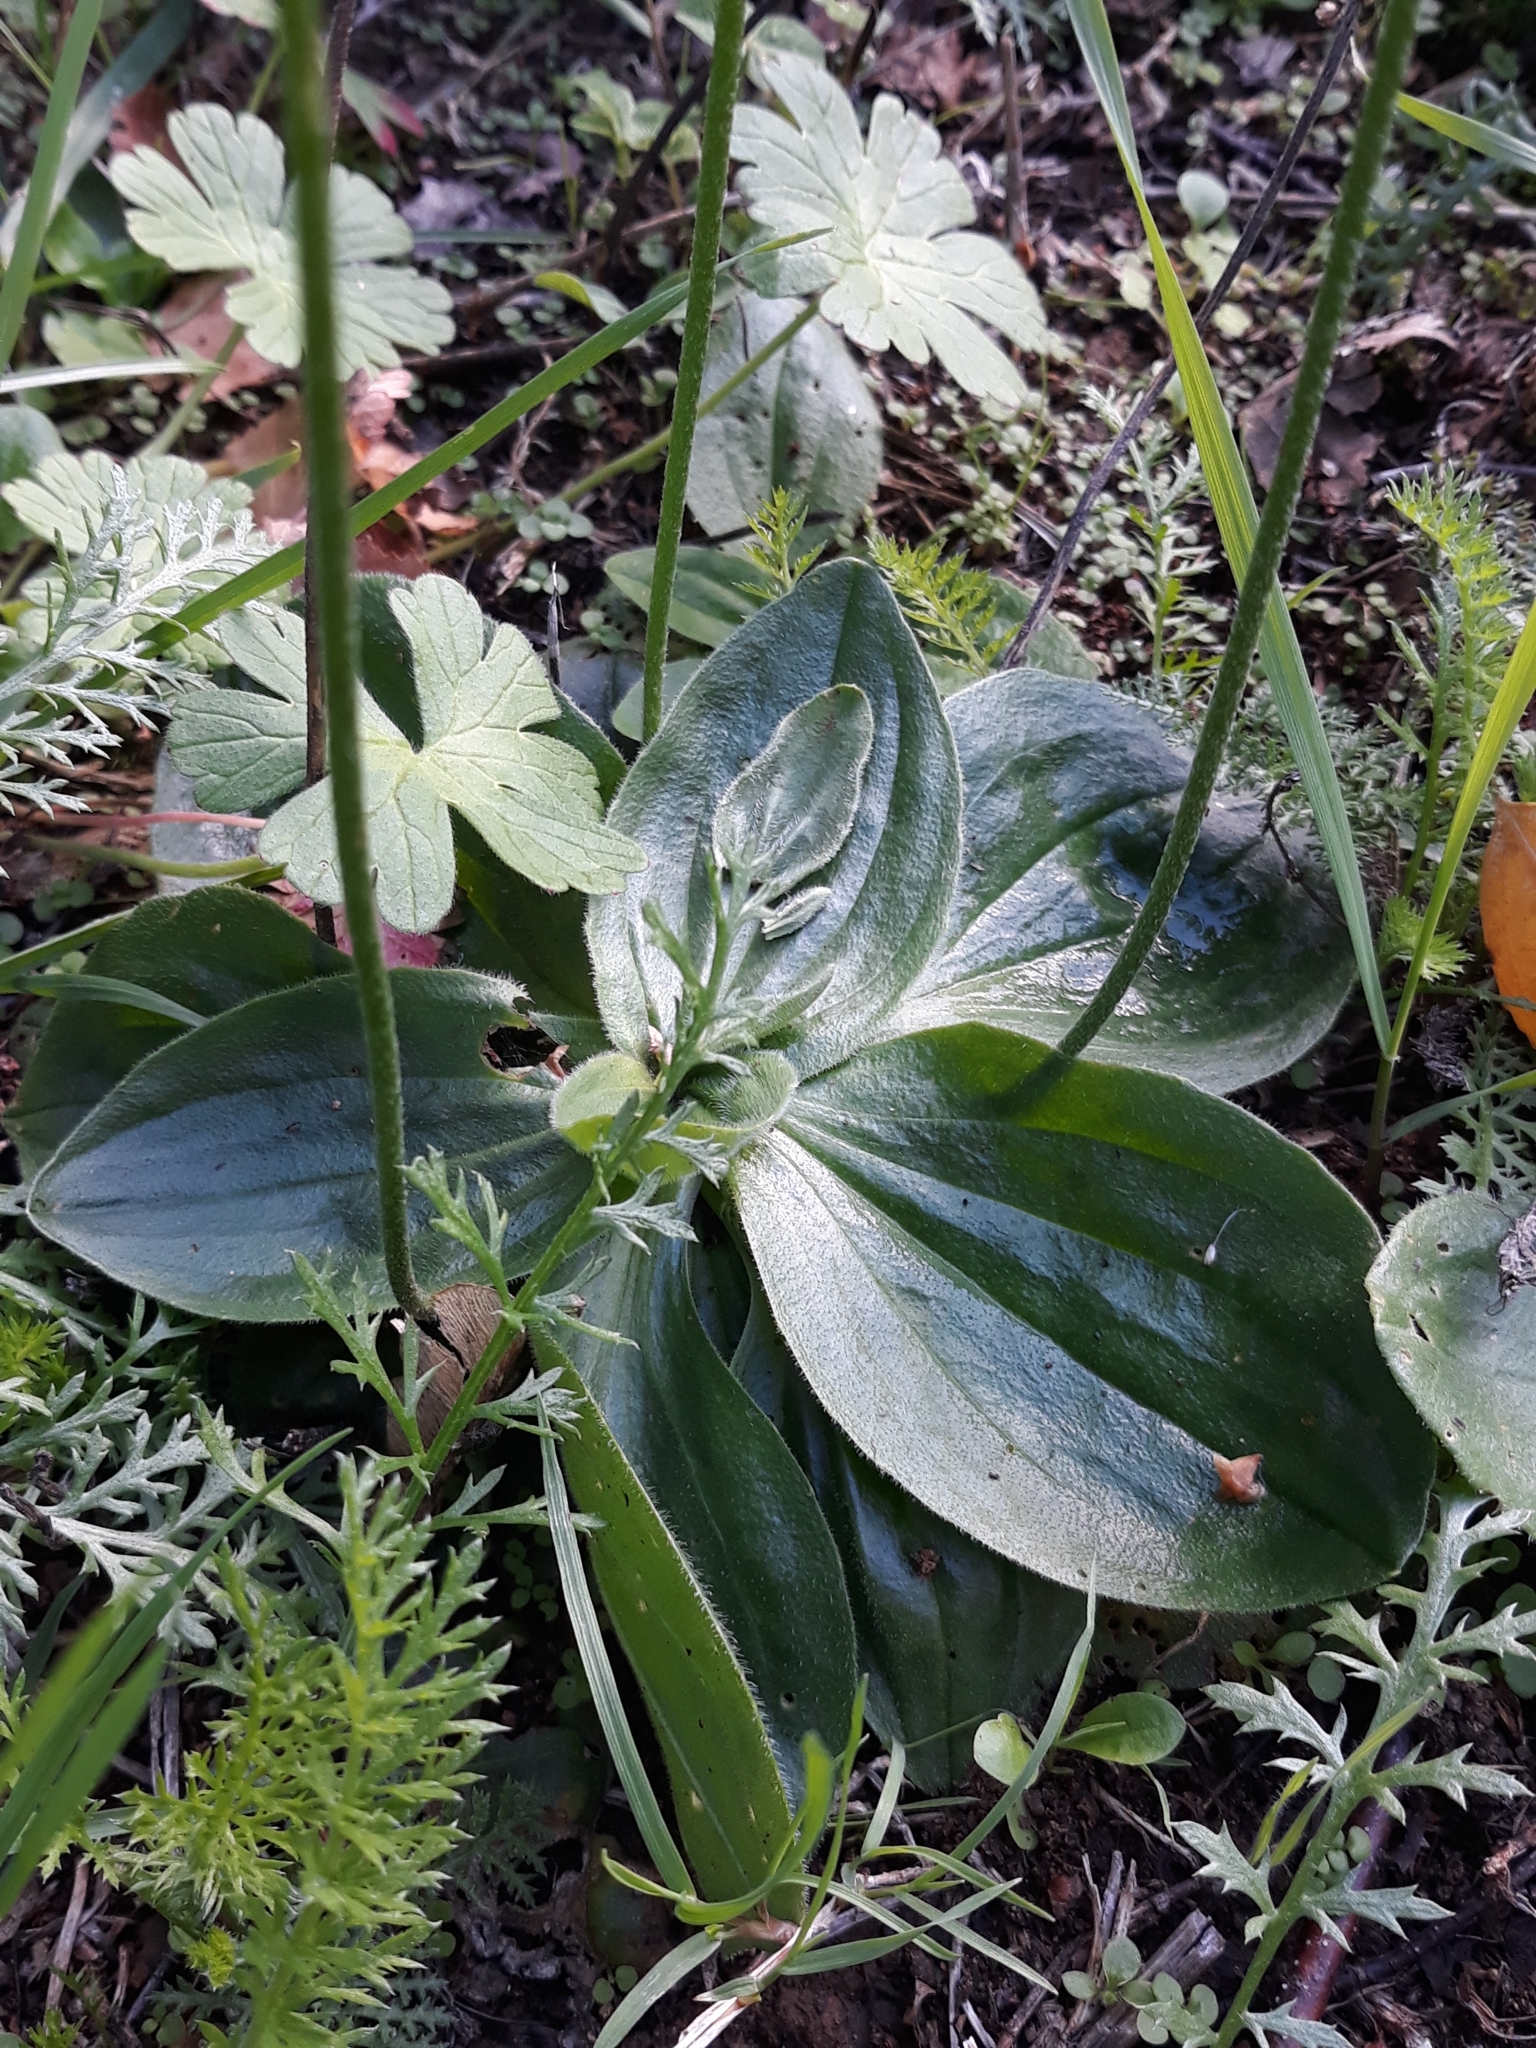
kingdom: Plantae
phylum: Tracheophyta
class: Magnoliopsida
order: Lamiales
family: Plantaginaceae
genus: Plantago
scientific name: Plantago media
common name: Hoary plantain
